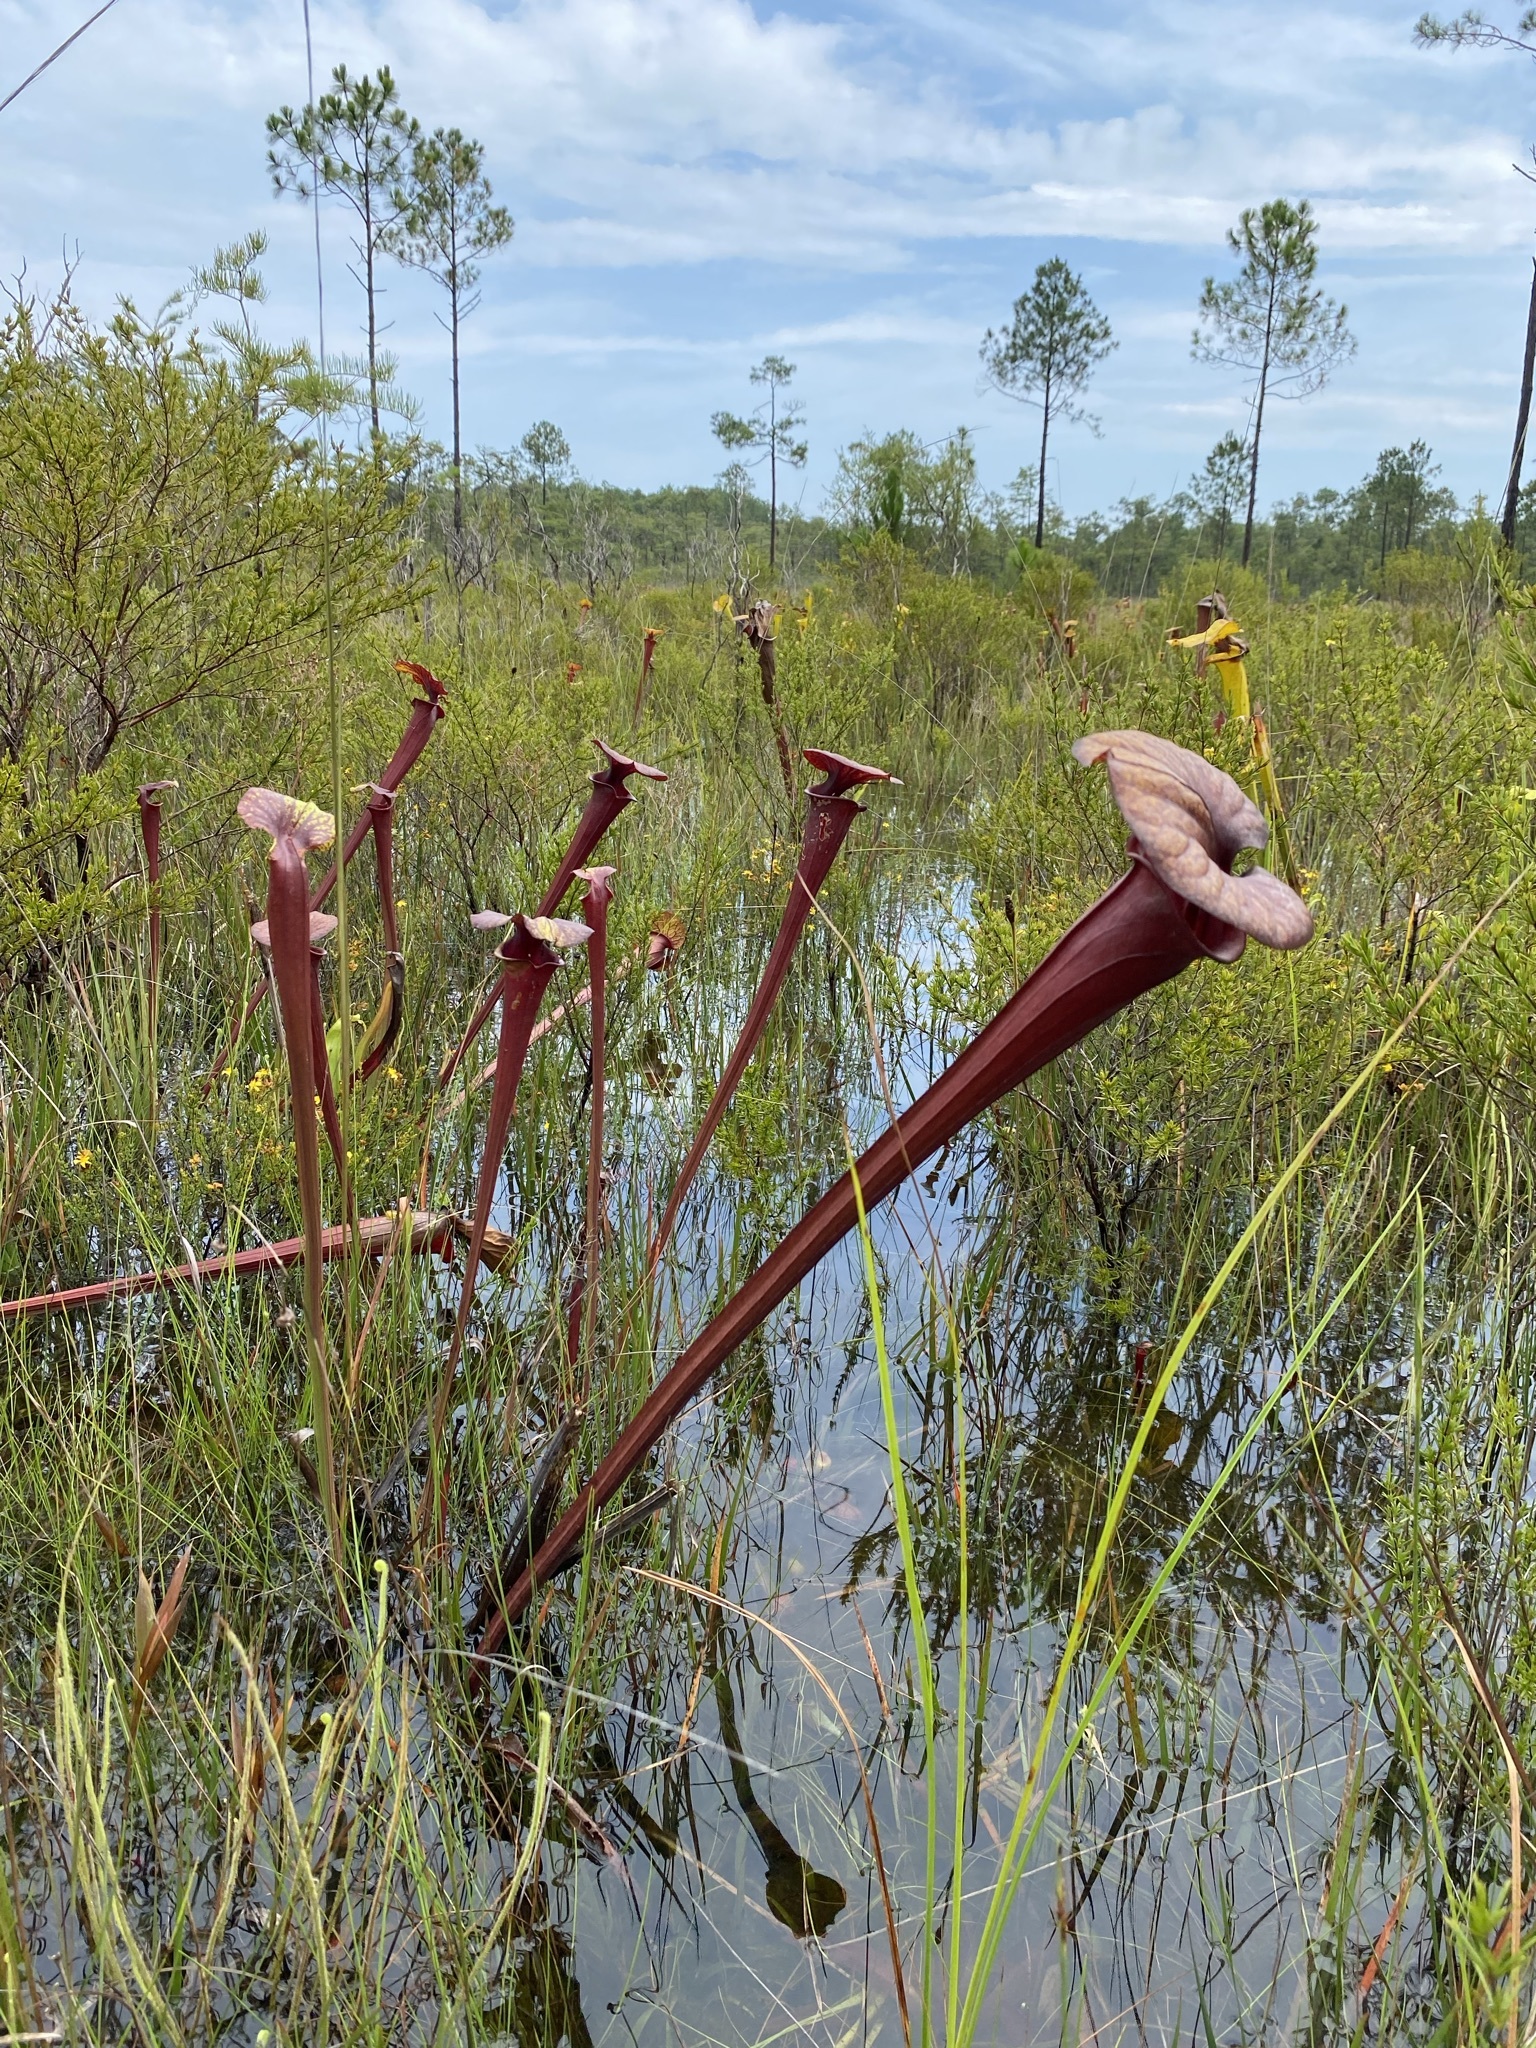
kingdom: Plantae
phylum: Tracheophyta
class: Magnoliopsida
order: Ericales
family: Sarraceniaceae
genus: Sarracenia
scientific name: Sarracenia flava
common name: Trumpets
